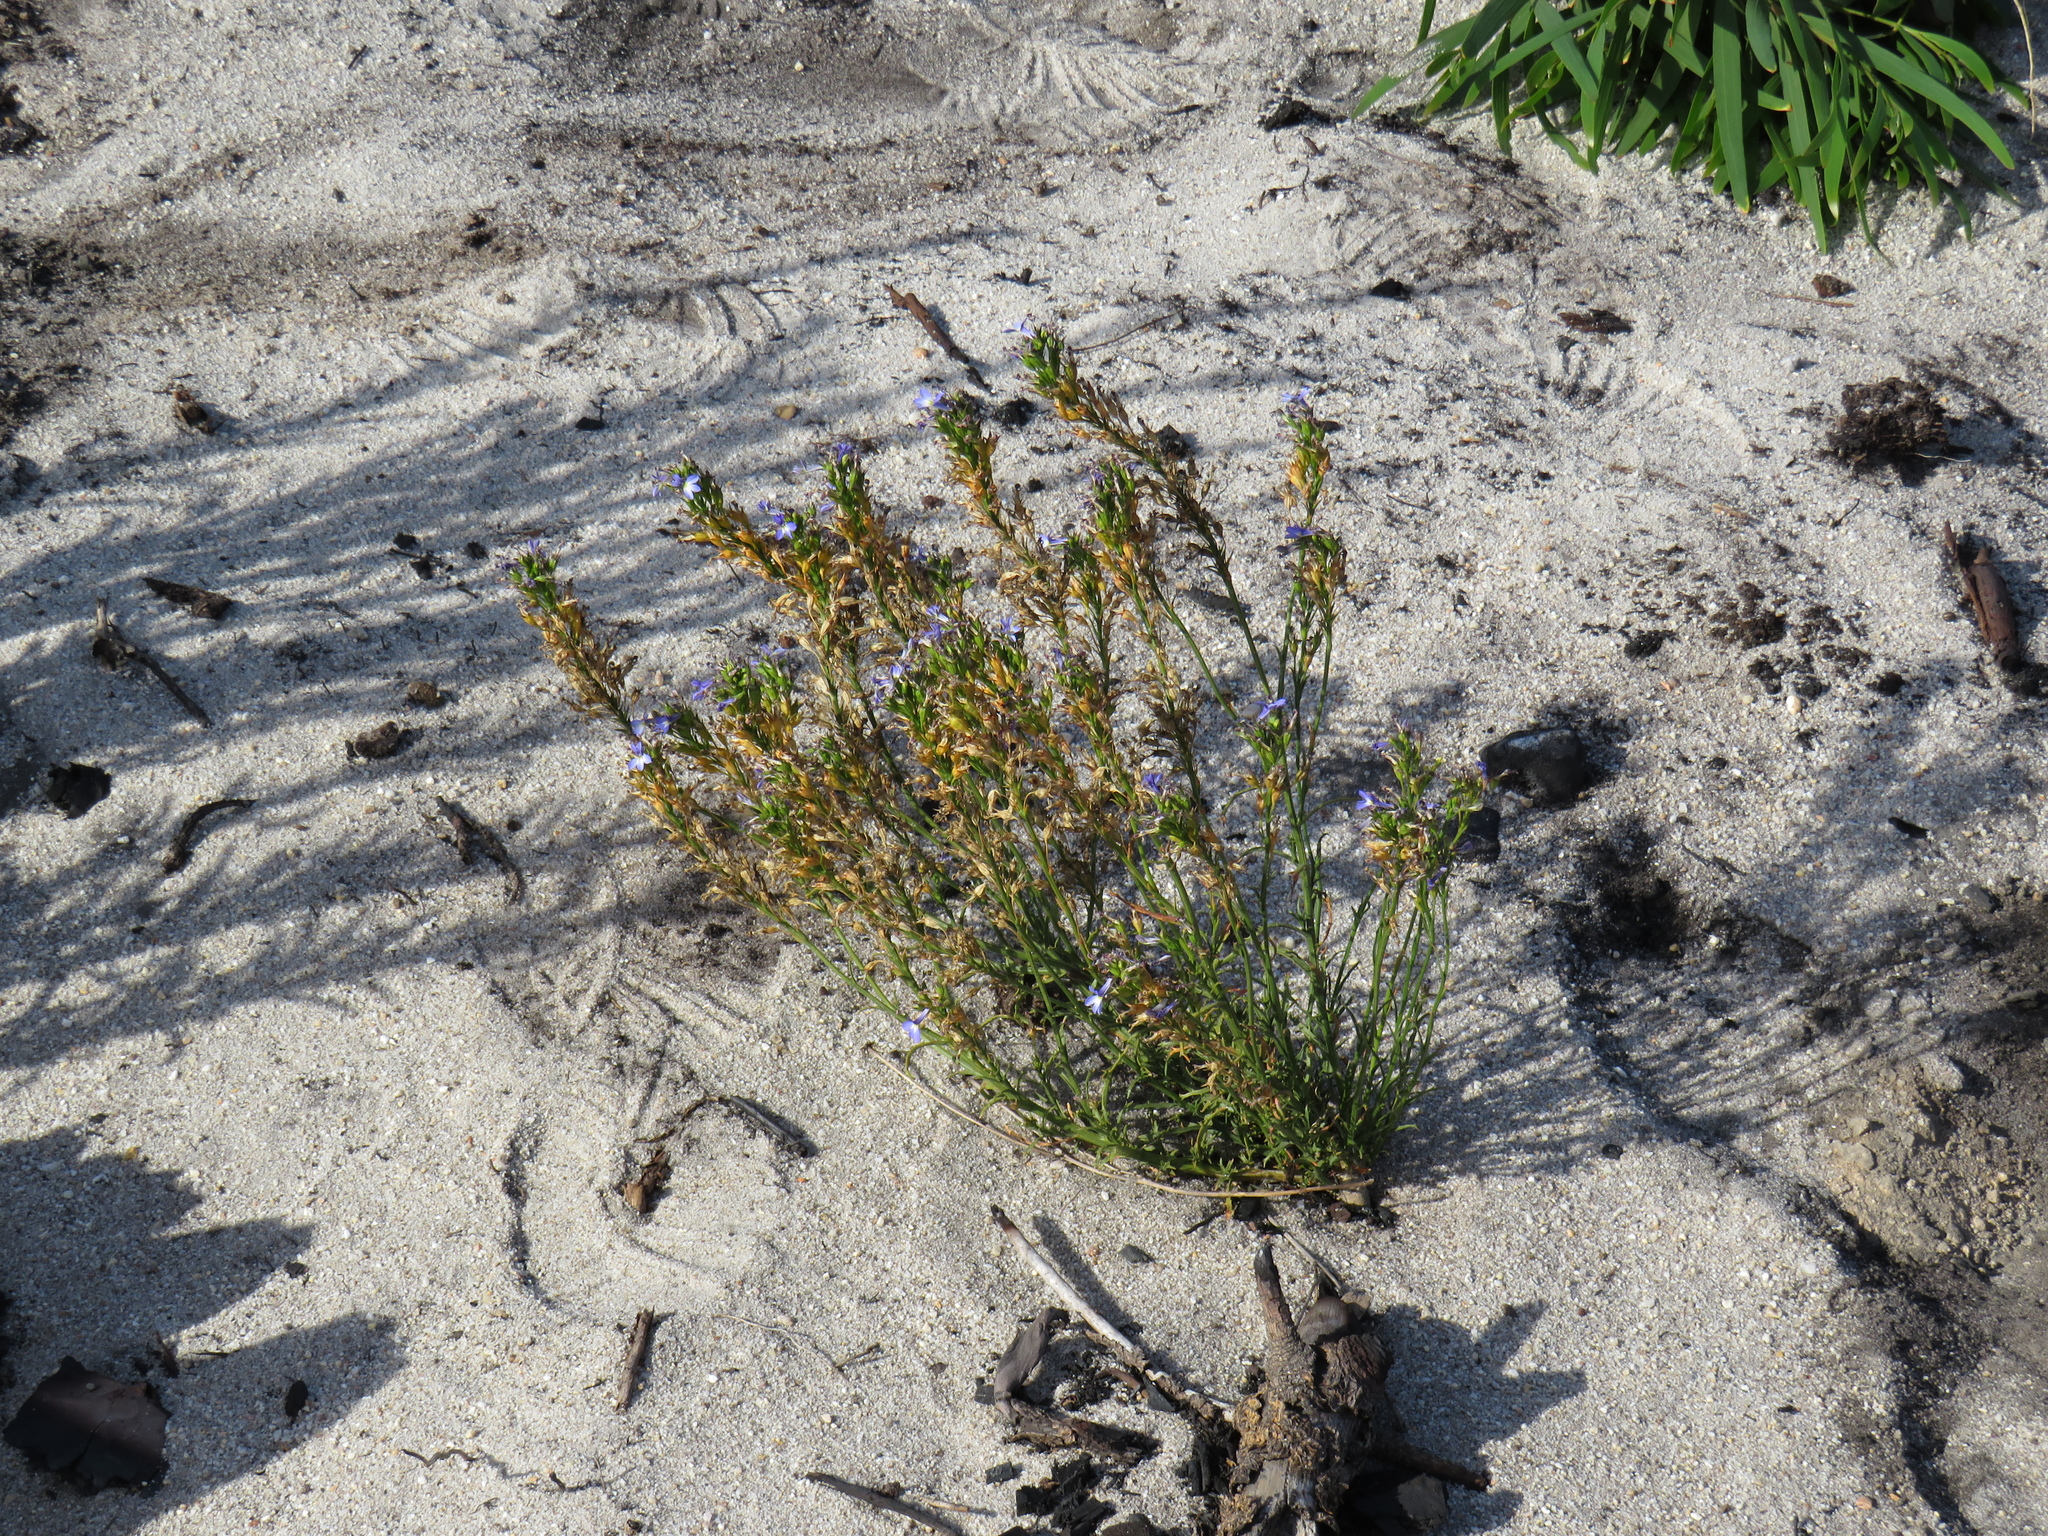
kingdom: Plantae
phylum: Tracheophyta
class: Magnoliopsida
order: Asterales
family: Campanulaceae
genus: Lobelia
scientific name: Lobelia comosa
